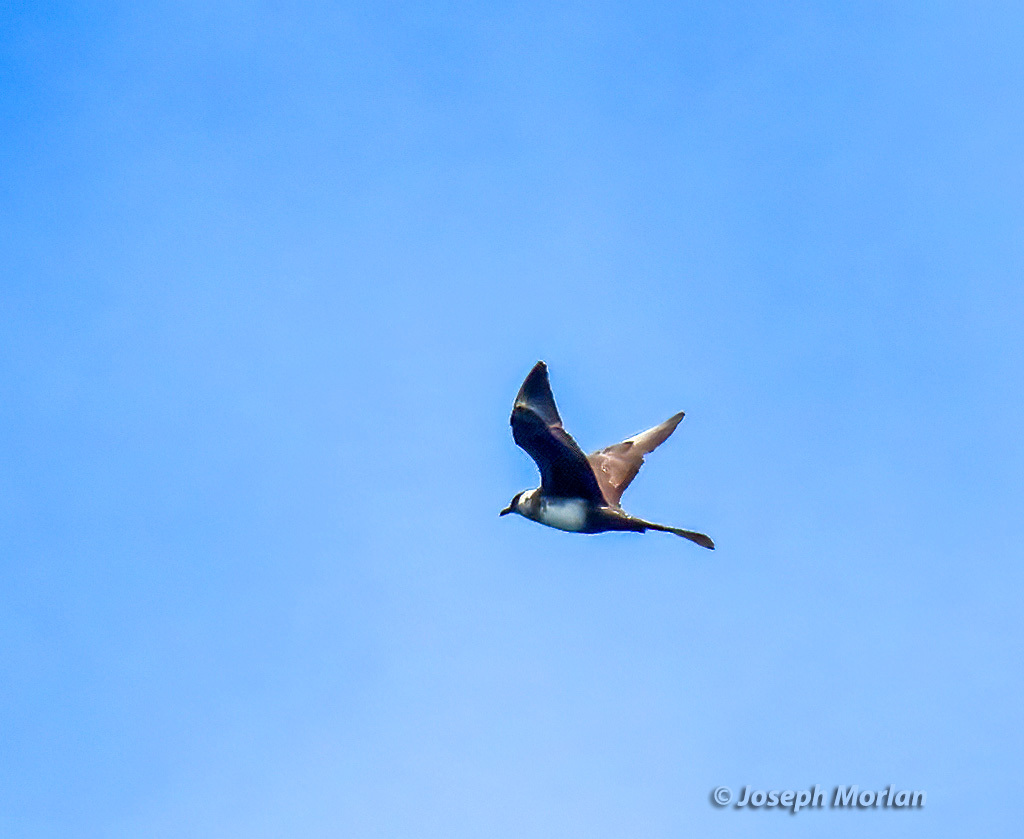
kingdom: Animalia
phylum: Chordata
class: Aves
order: Charadriiformes
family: Stercorariidae
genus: Stercorarius
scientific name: Stercorarius pomarinus
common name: Pomarine jaeger
